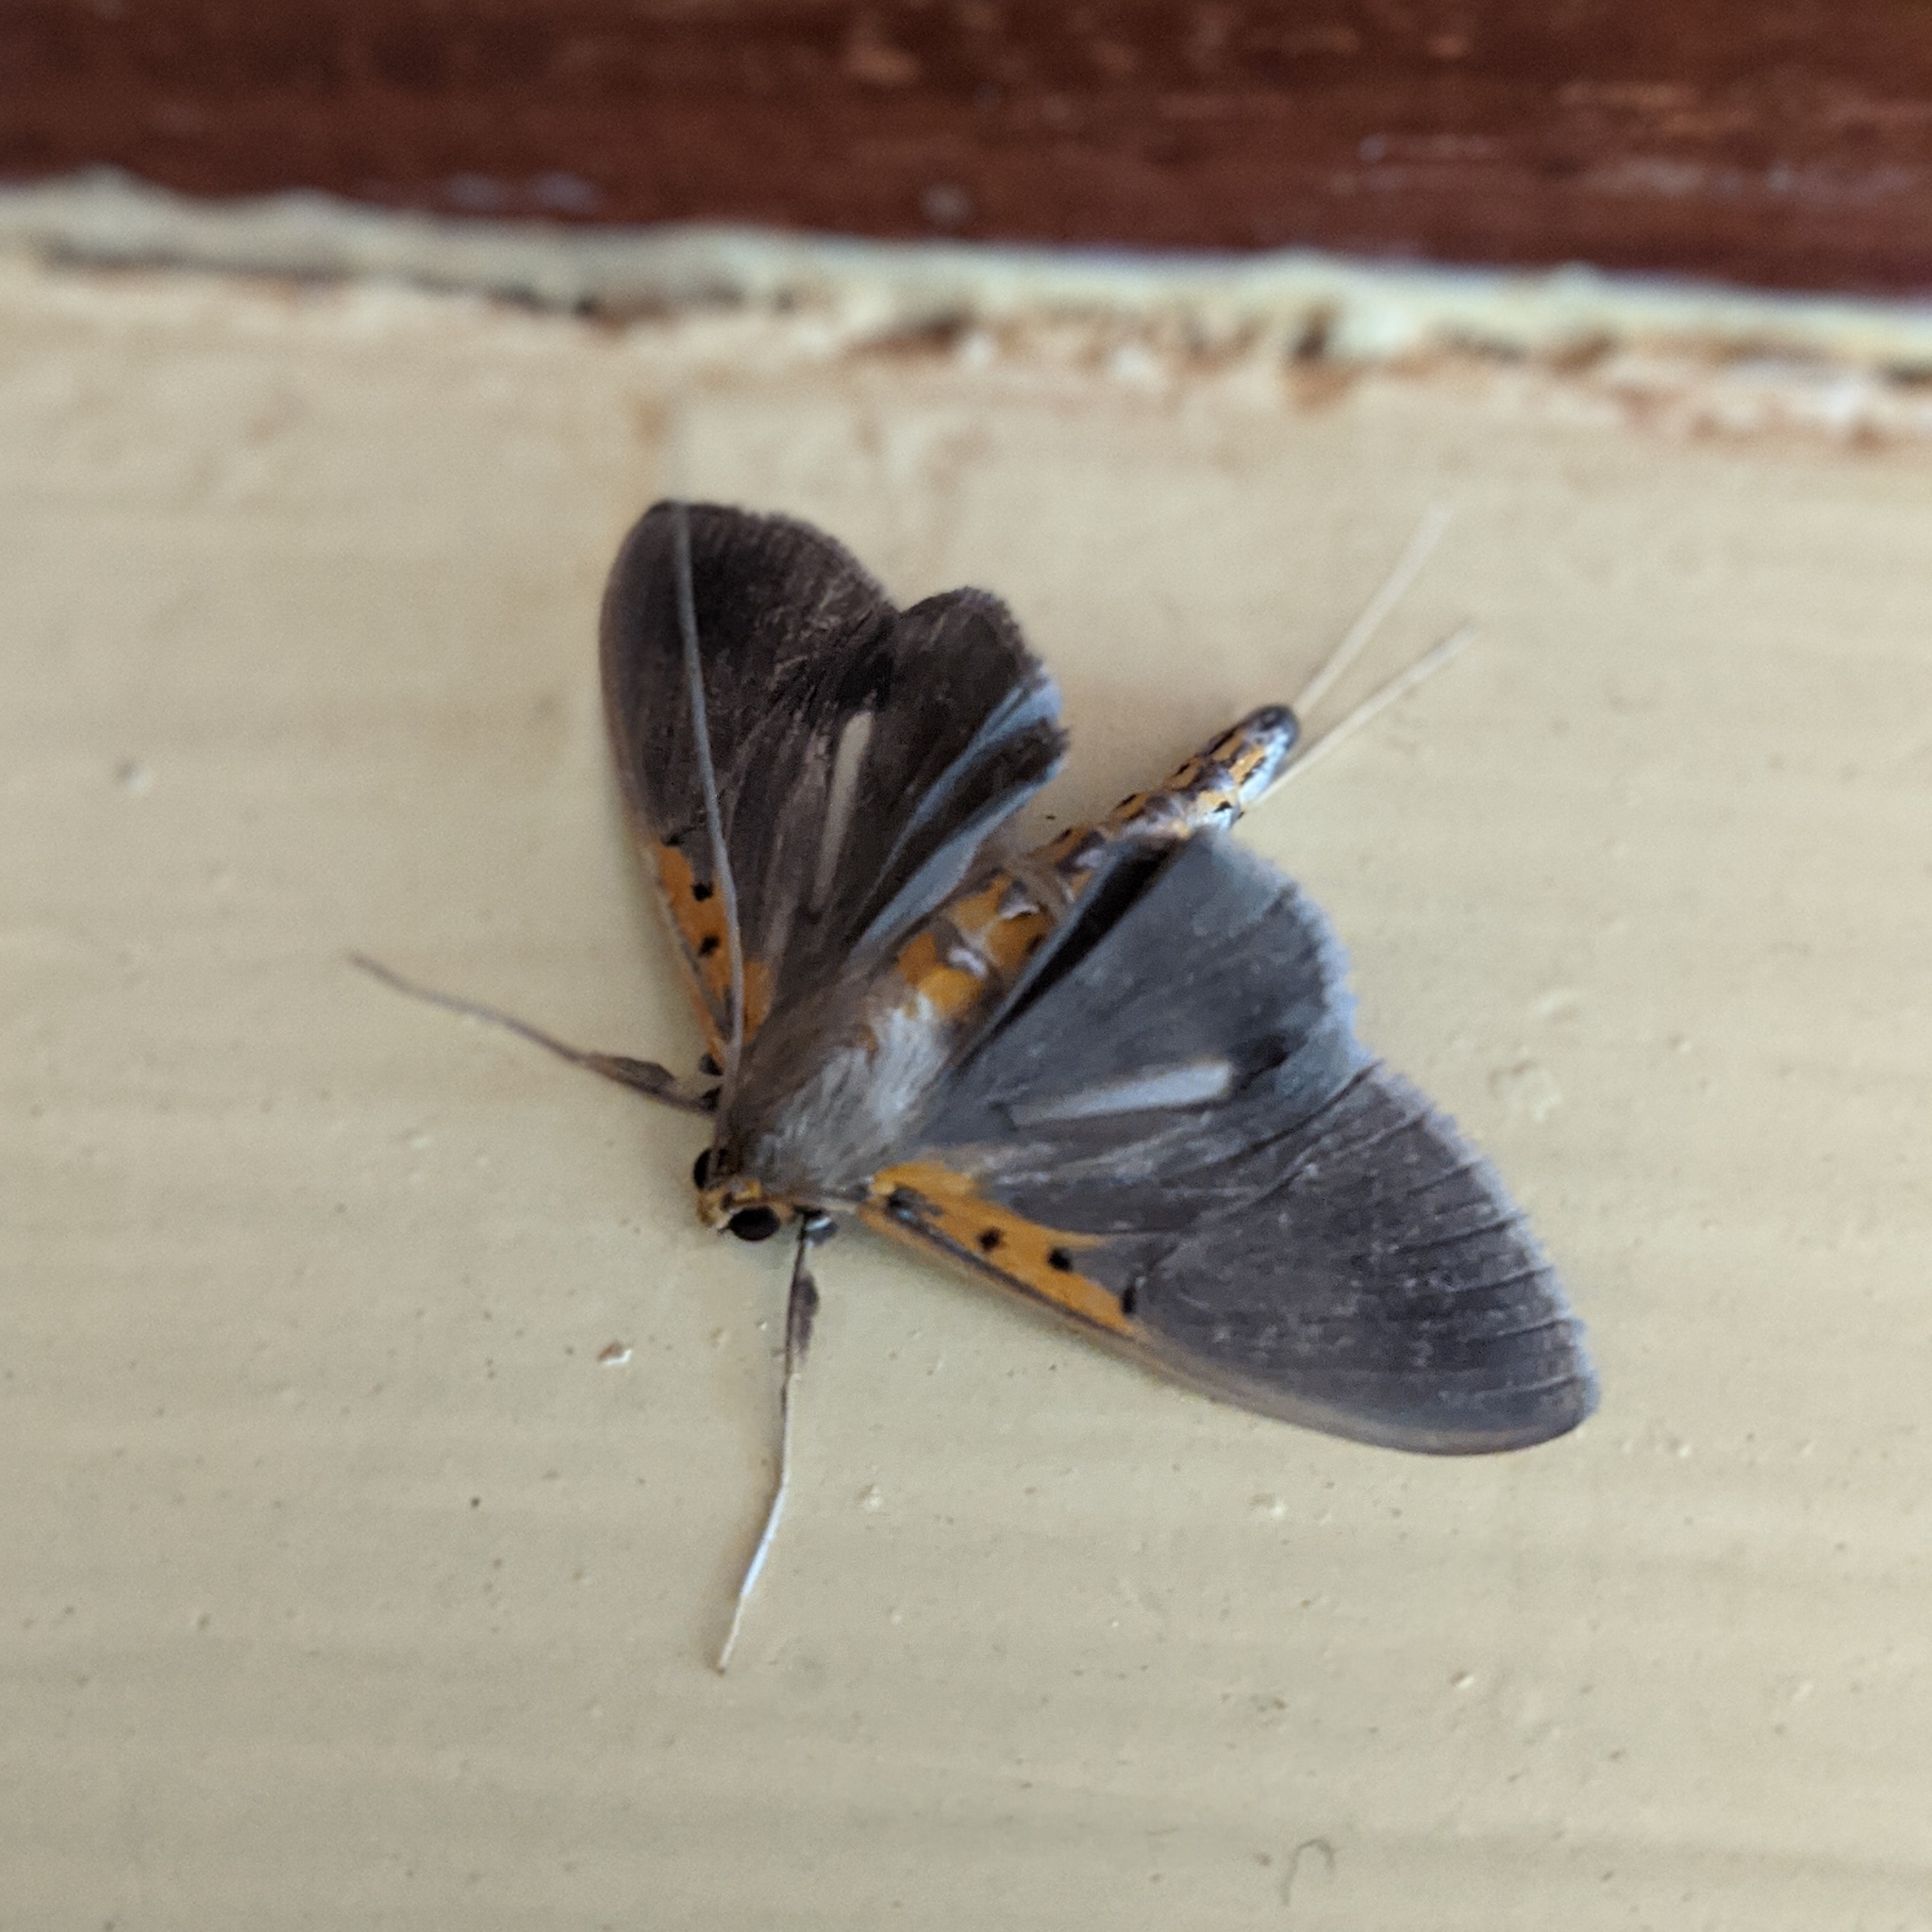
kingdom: Animalia
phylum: Arthropoda
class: Insecta
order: Lepidoptera
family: Crambidae
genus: Filodes
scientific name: Filodes costivitralis
